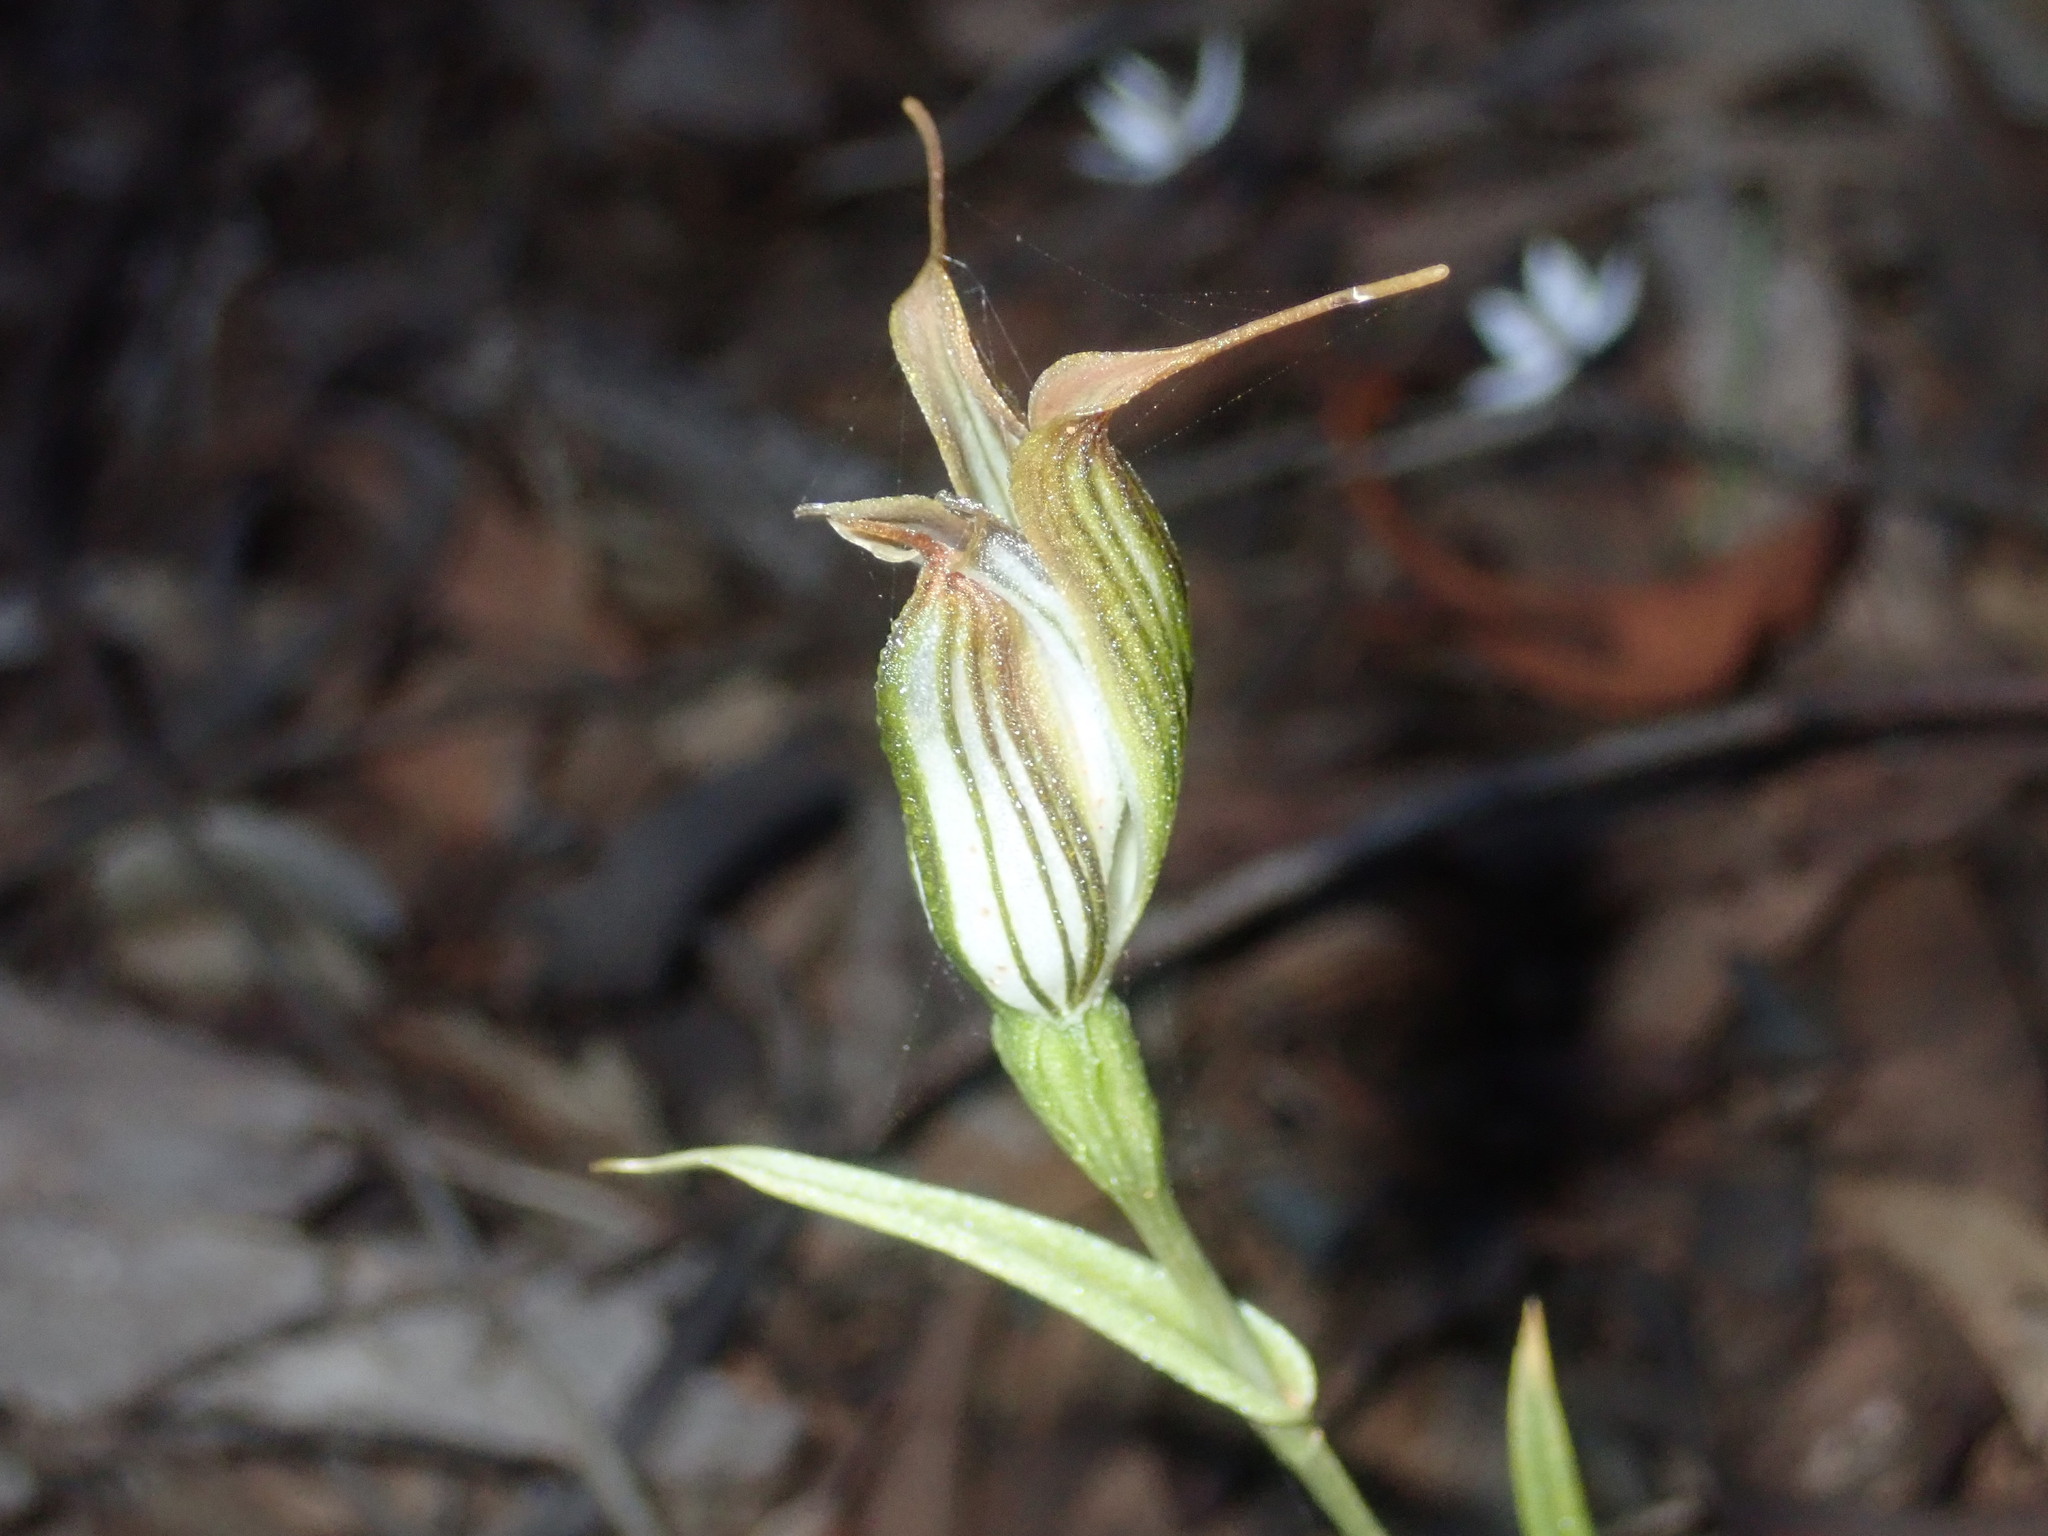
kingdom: Plantae
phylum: Tracheophyta
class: Liliopsida
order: Asparagales
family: Orchidaceae
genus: Pterostylis
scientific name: Pterostylis recurva
